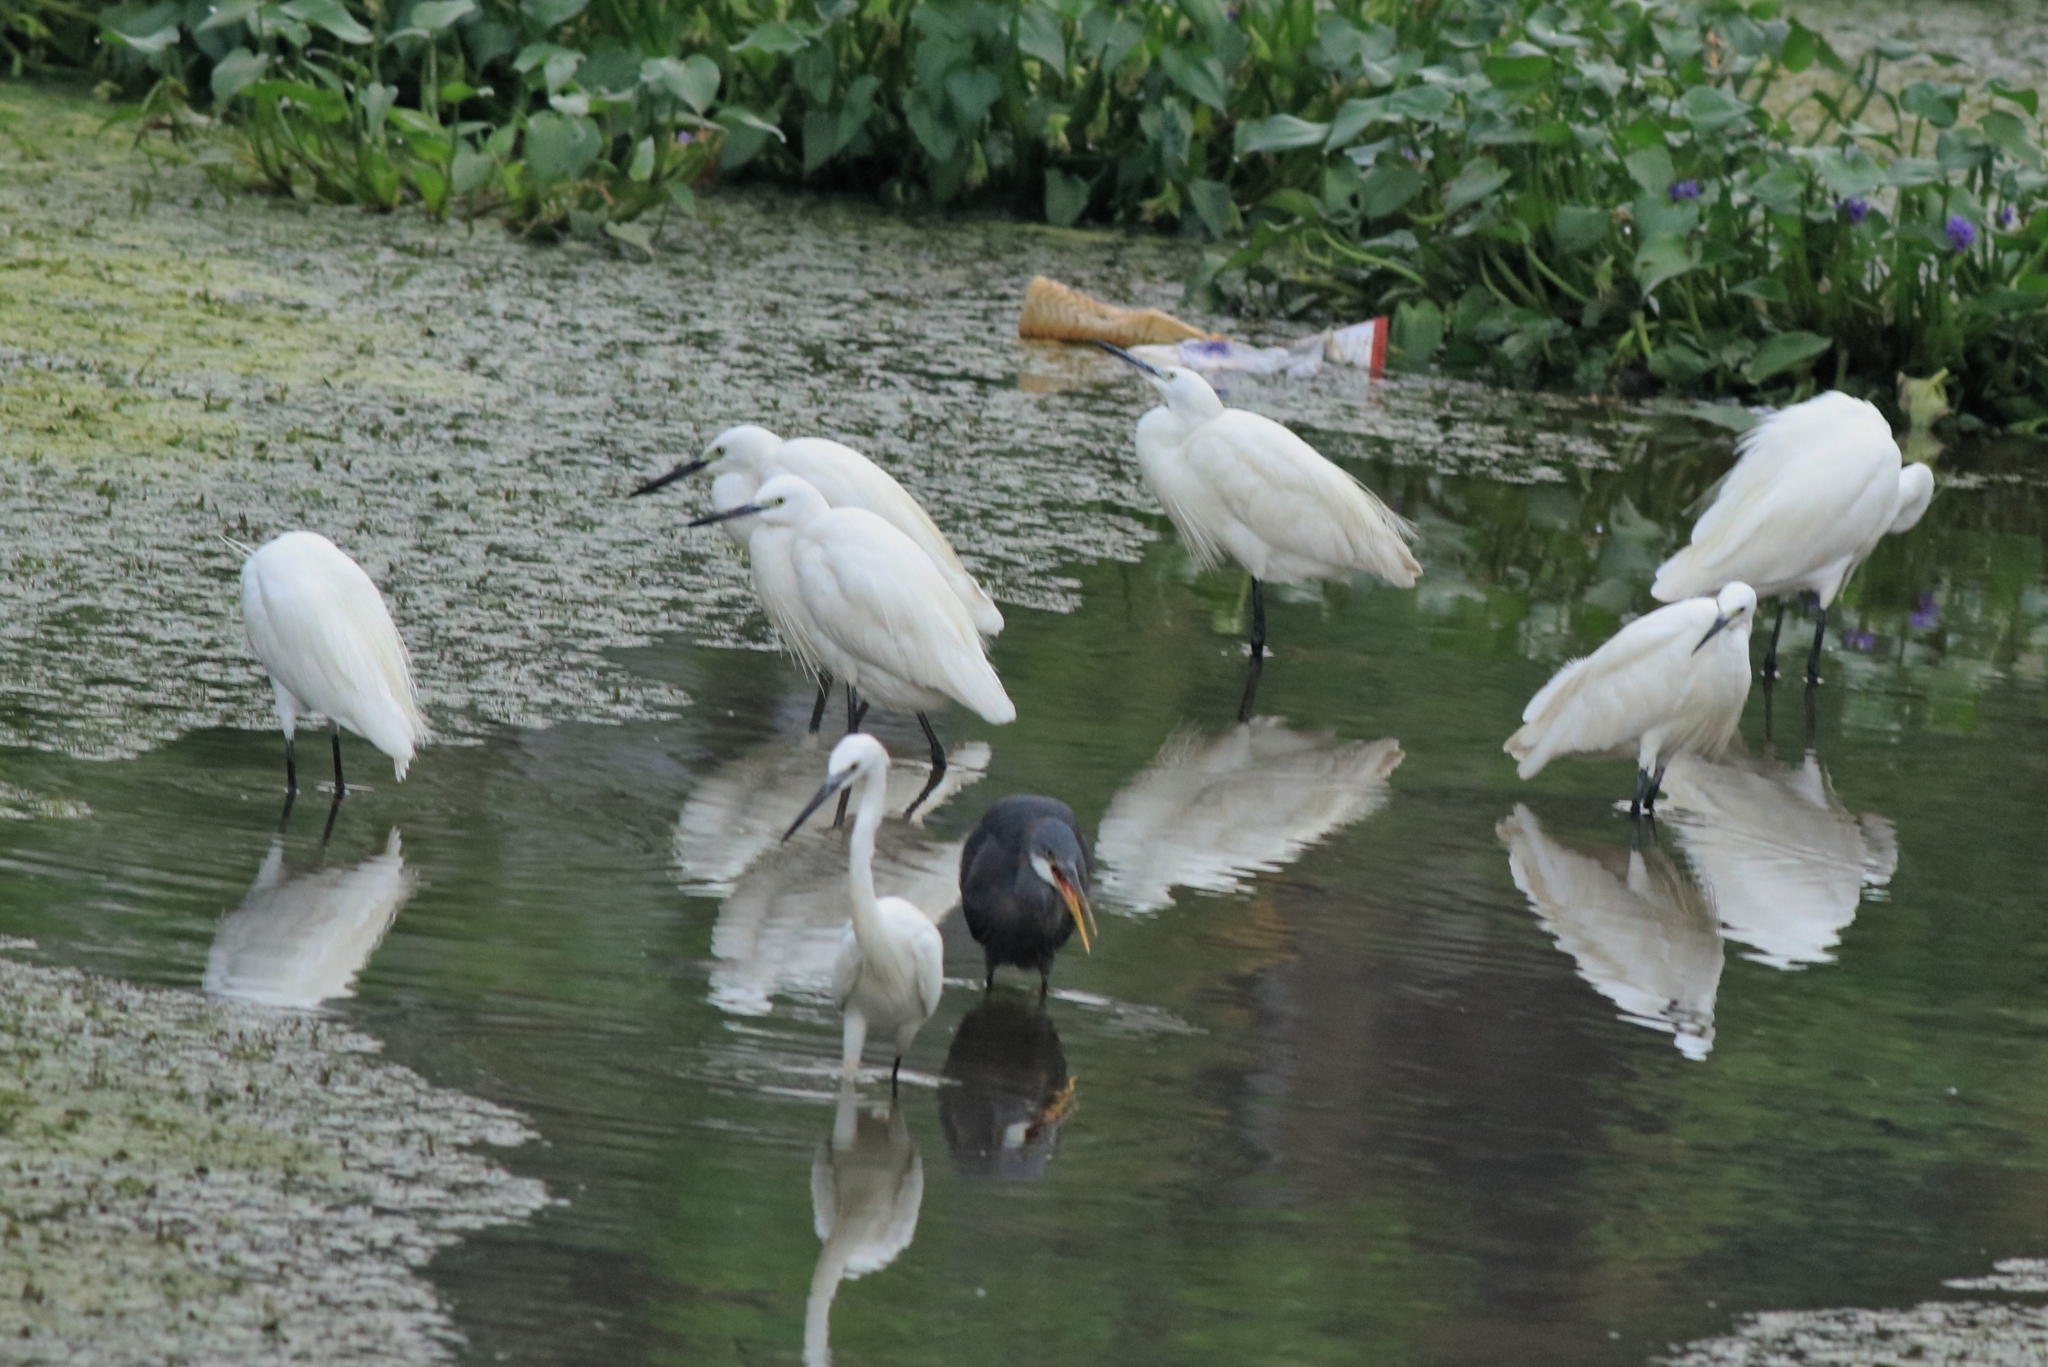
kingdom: Animalia
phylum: Chordata
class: Aves
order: Pelecaniformes
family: Ardeidae
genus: Egretta
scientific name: Egretta garzetta
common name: Little egret
